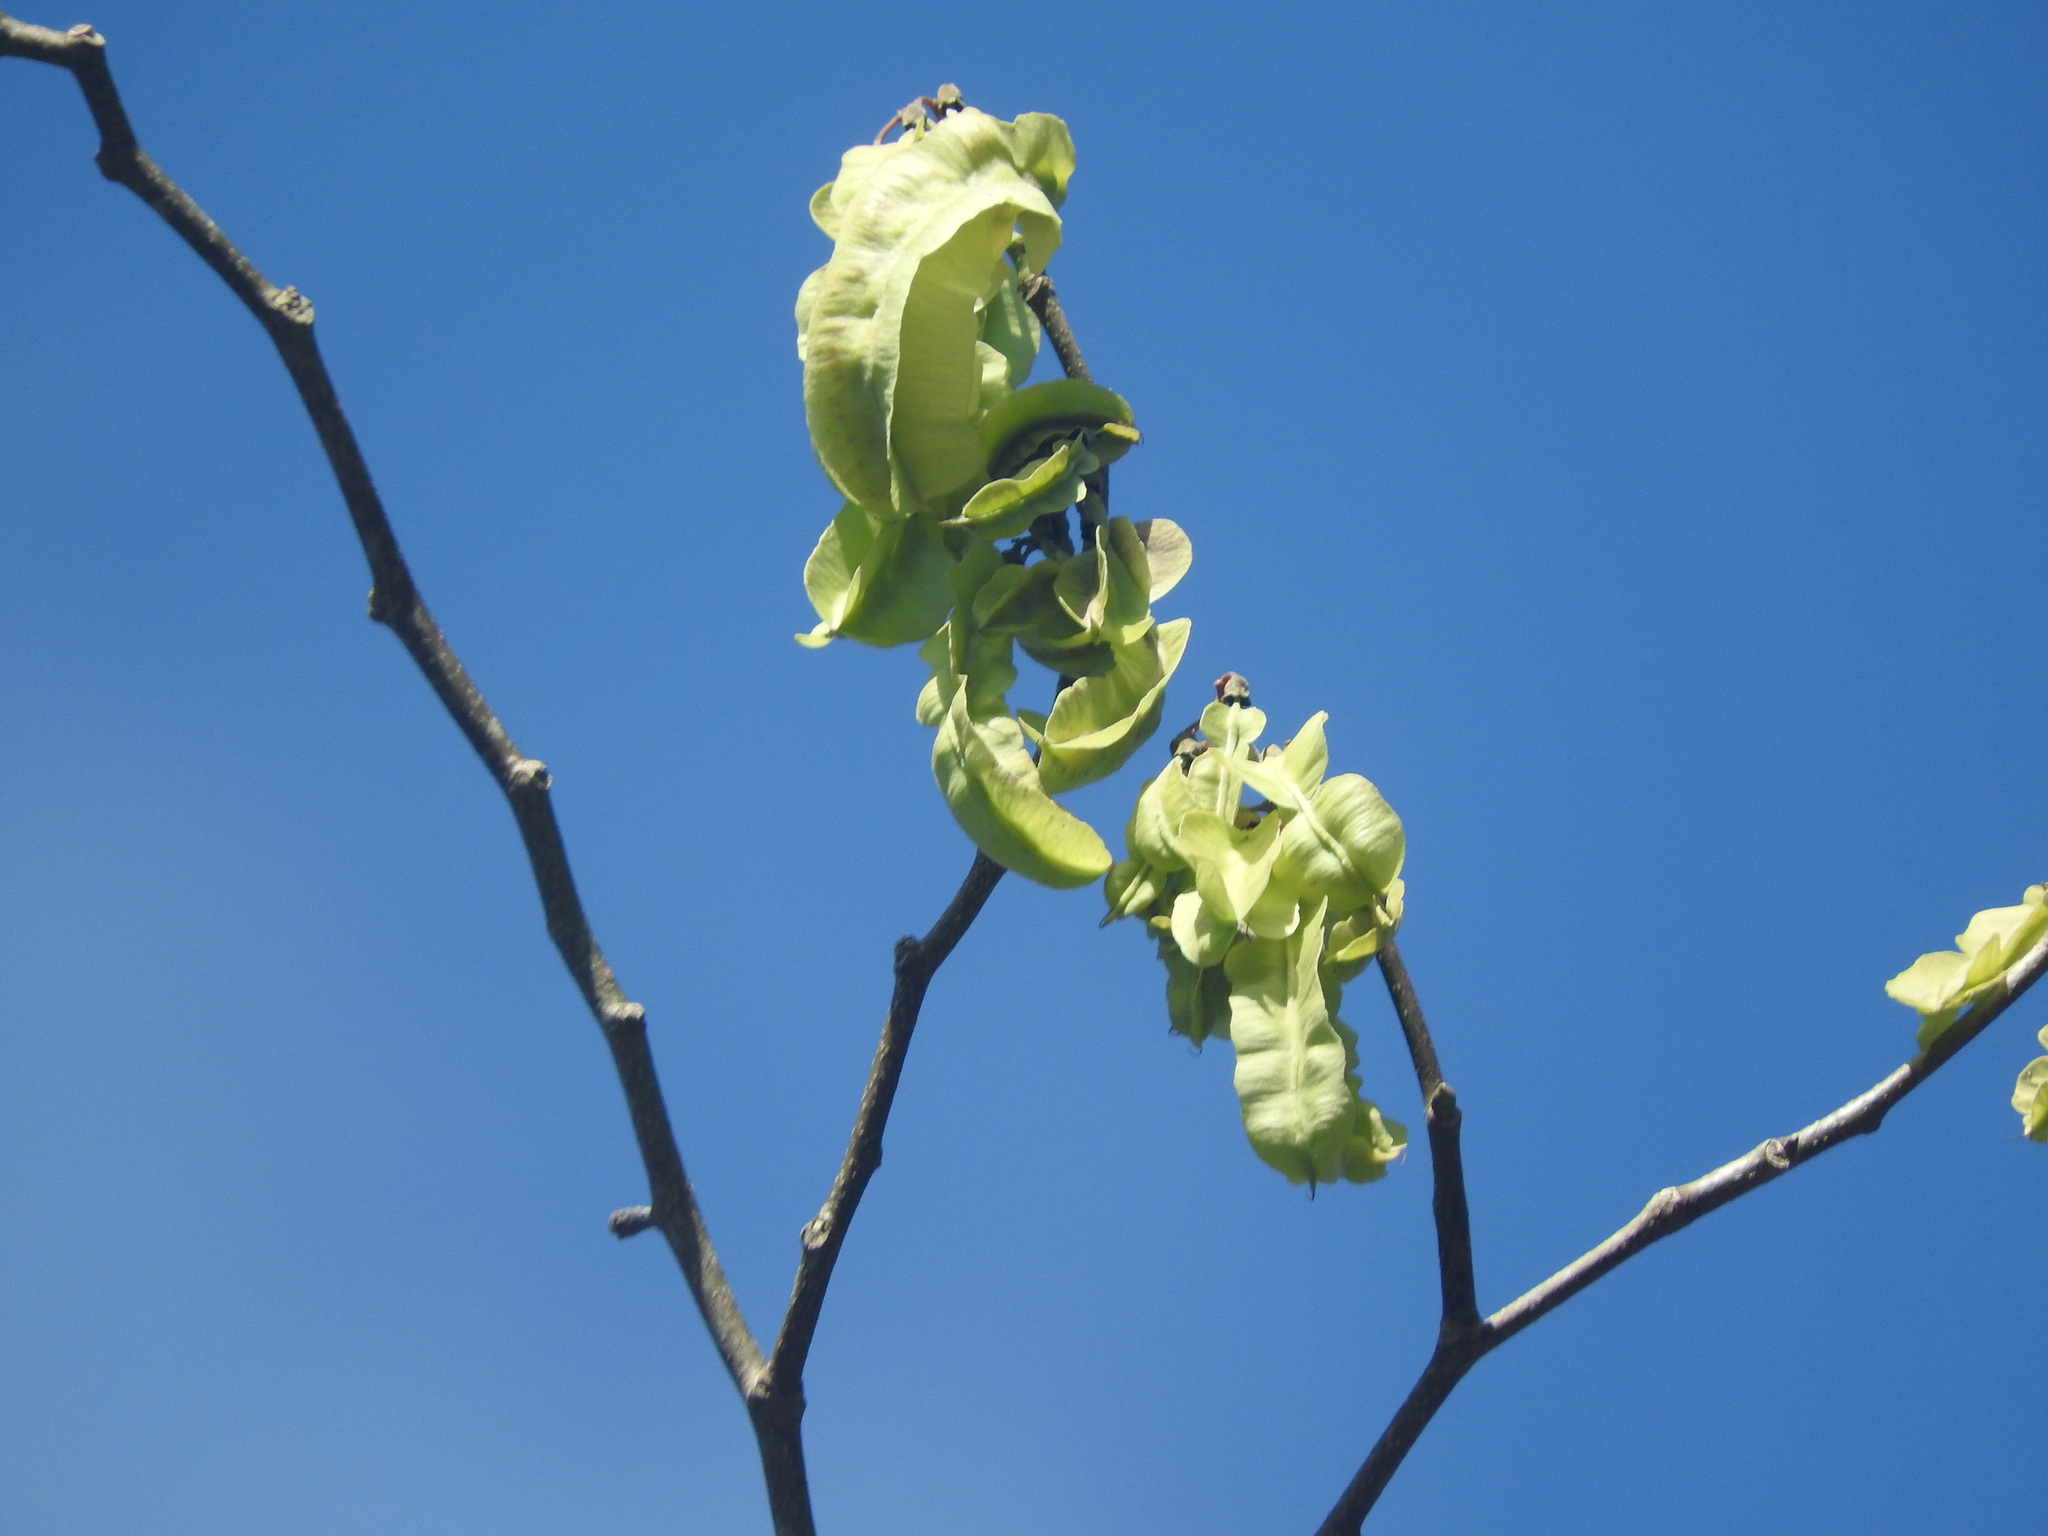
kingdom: Plantae
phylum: Tracheophyta
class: Magnoliopsida
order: Fabales
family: Fabaceae
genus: Piscidia
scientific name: Piscidia piscipula
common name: Florida fishpoison tree
